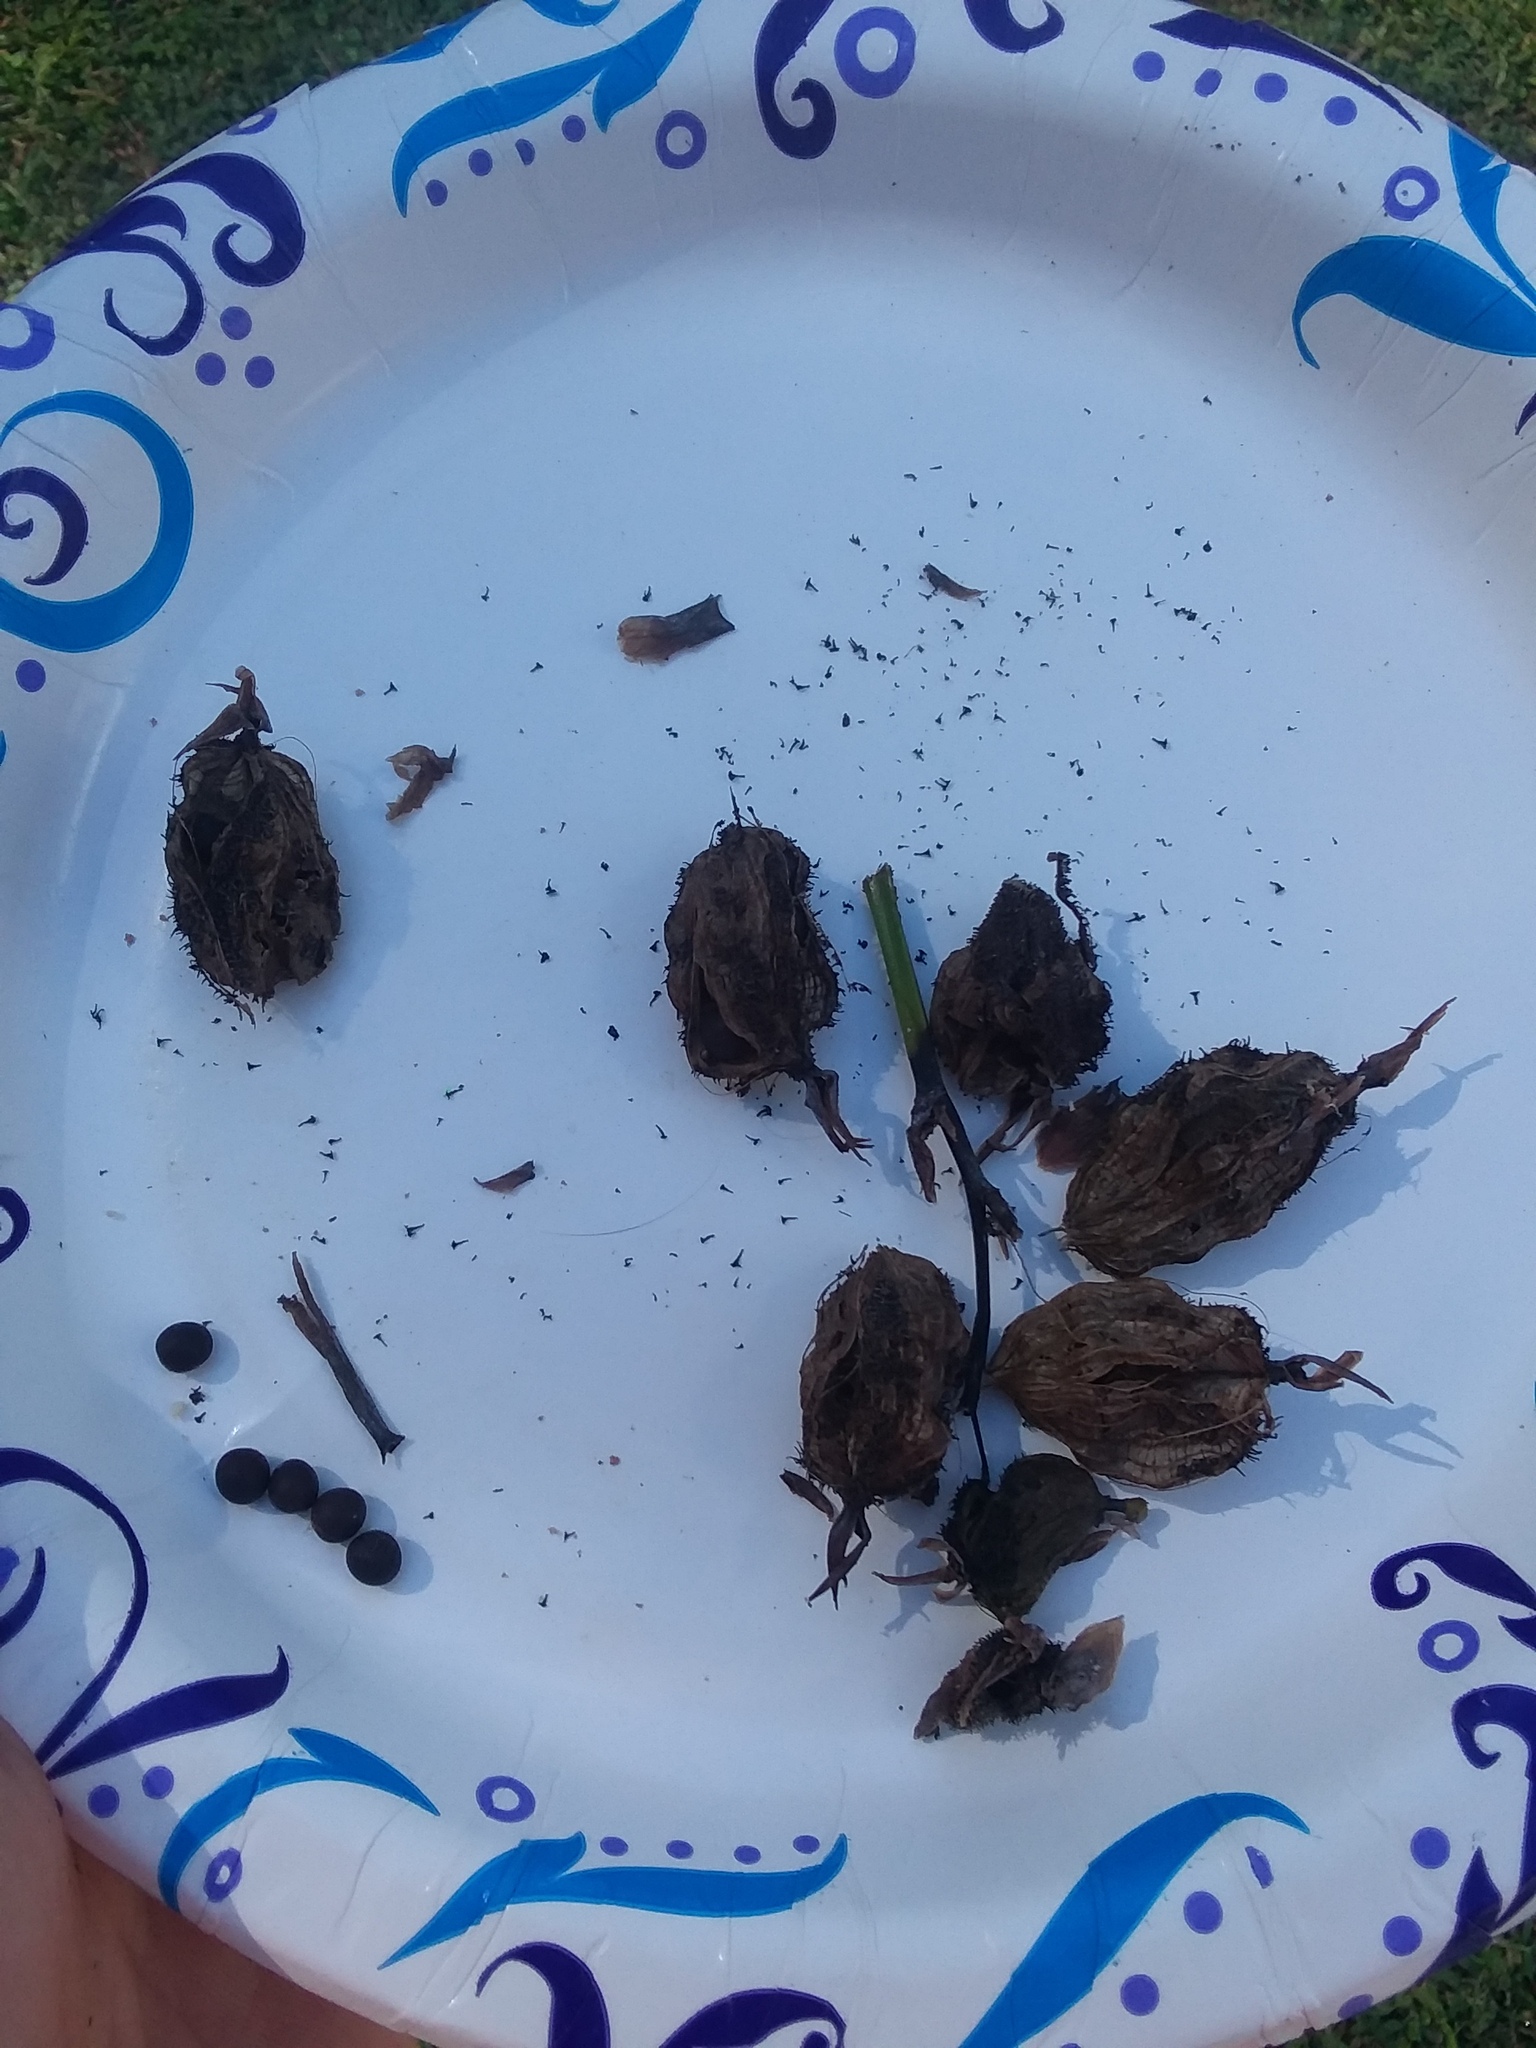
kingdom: Plantae
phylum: Tracheophyta
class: Liliopsida
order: Zingiberales
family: Cannaceae
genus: Canna
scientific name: Canna indica
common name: Indian shot
